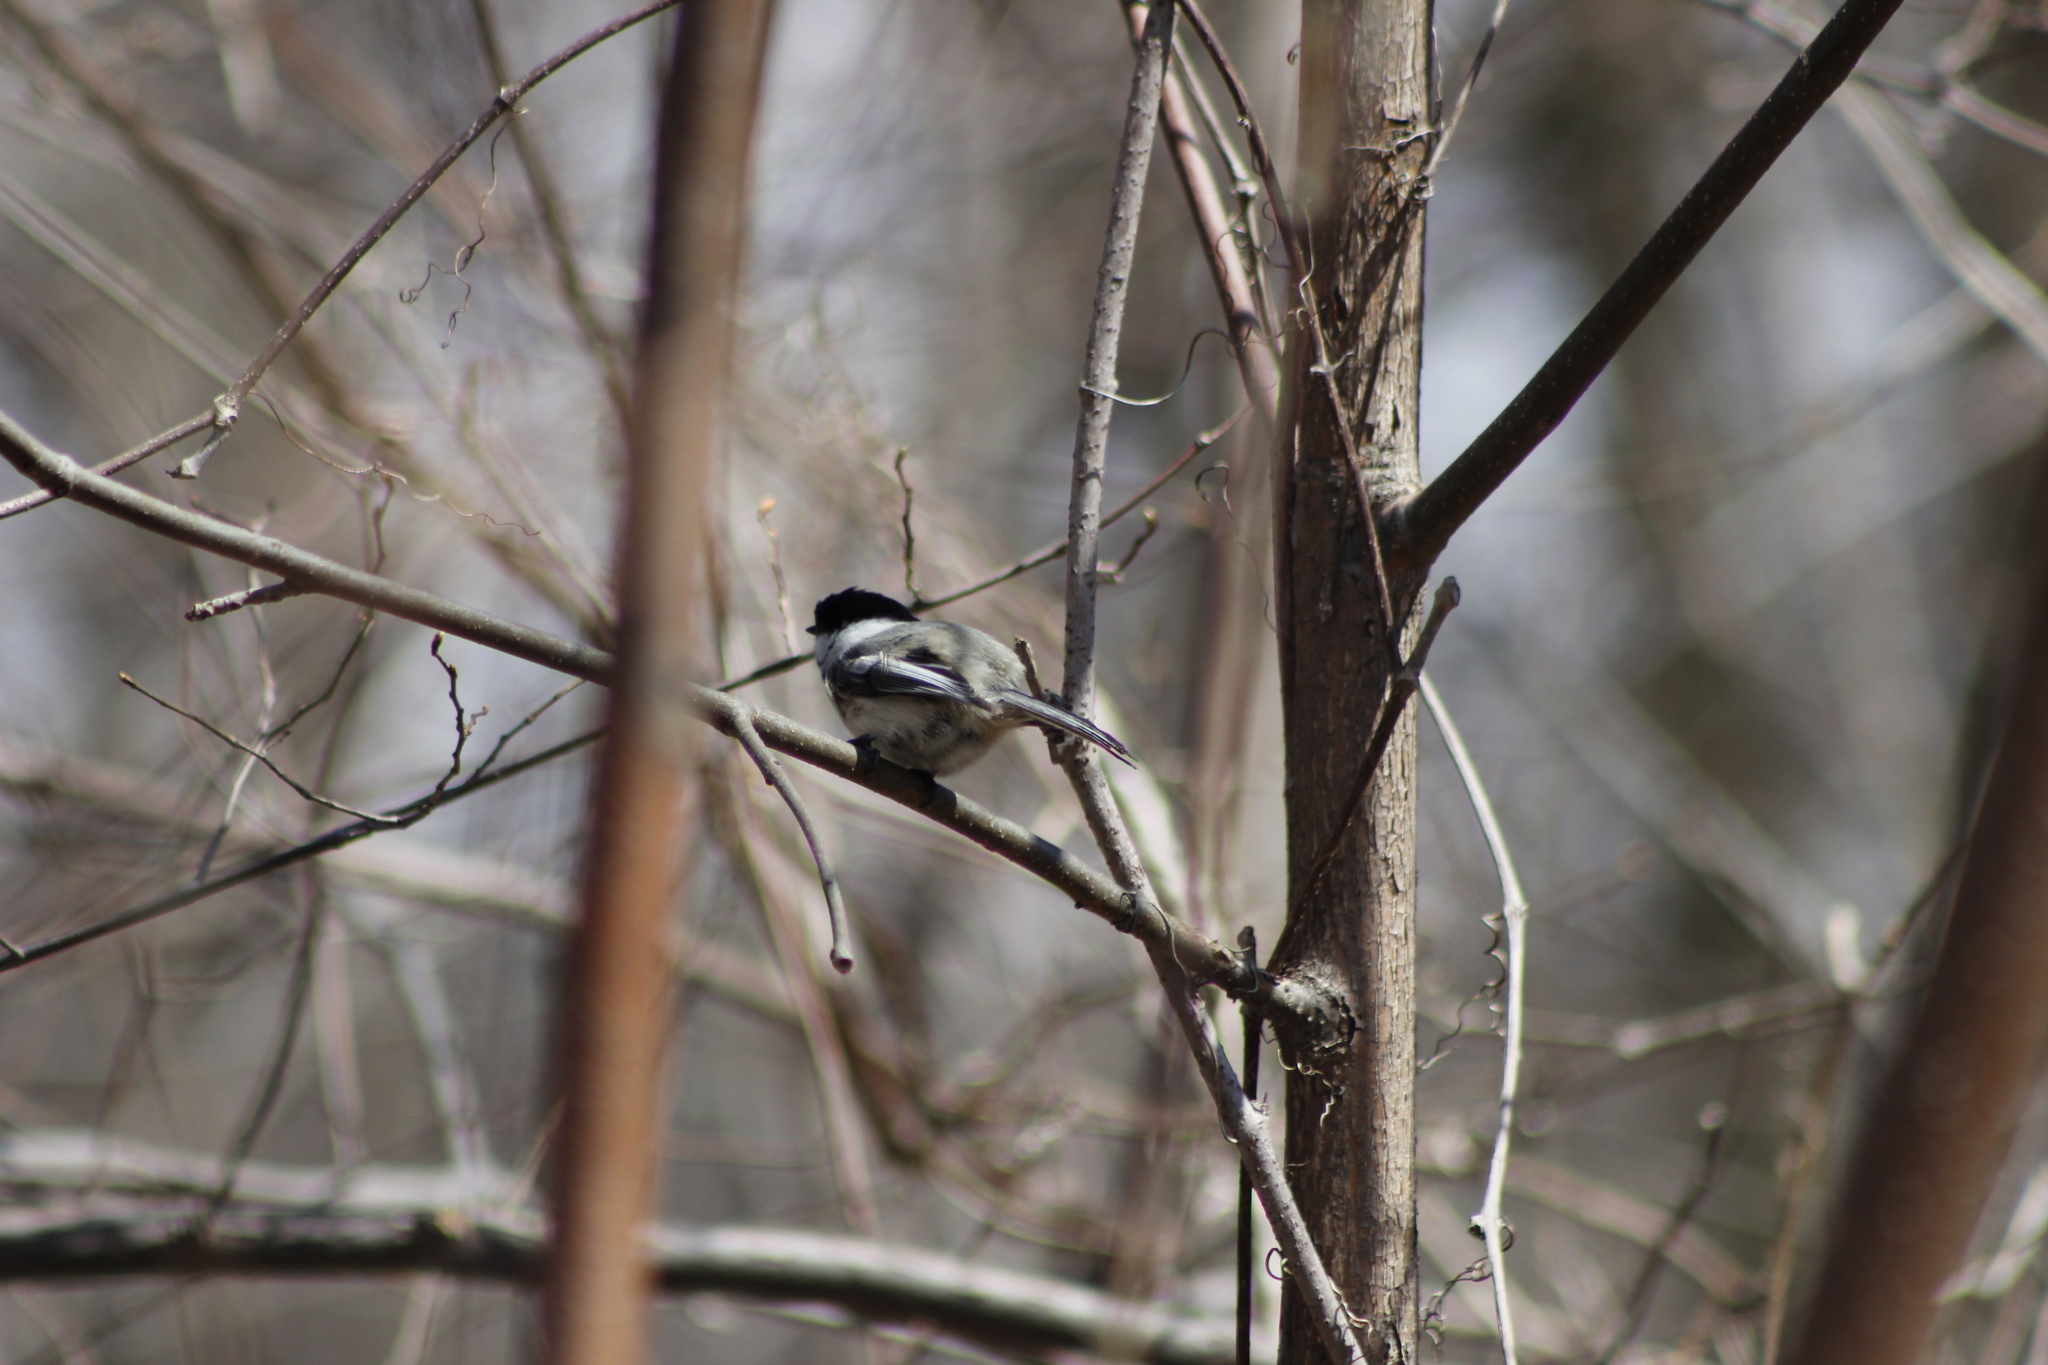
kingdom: Animalia
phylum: Chordata
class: Aves
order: Passeriformes
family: Paridae
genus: Poecile
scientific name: Poecile atricapillus
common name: Black-capped chickadee
